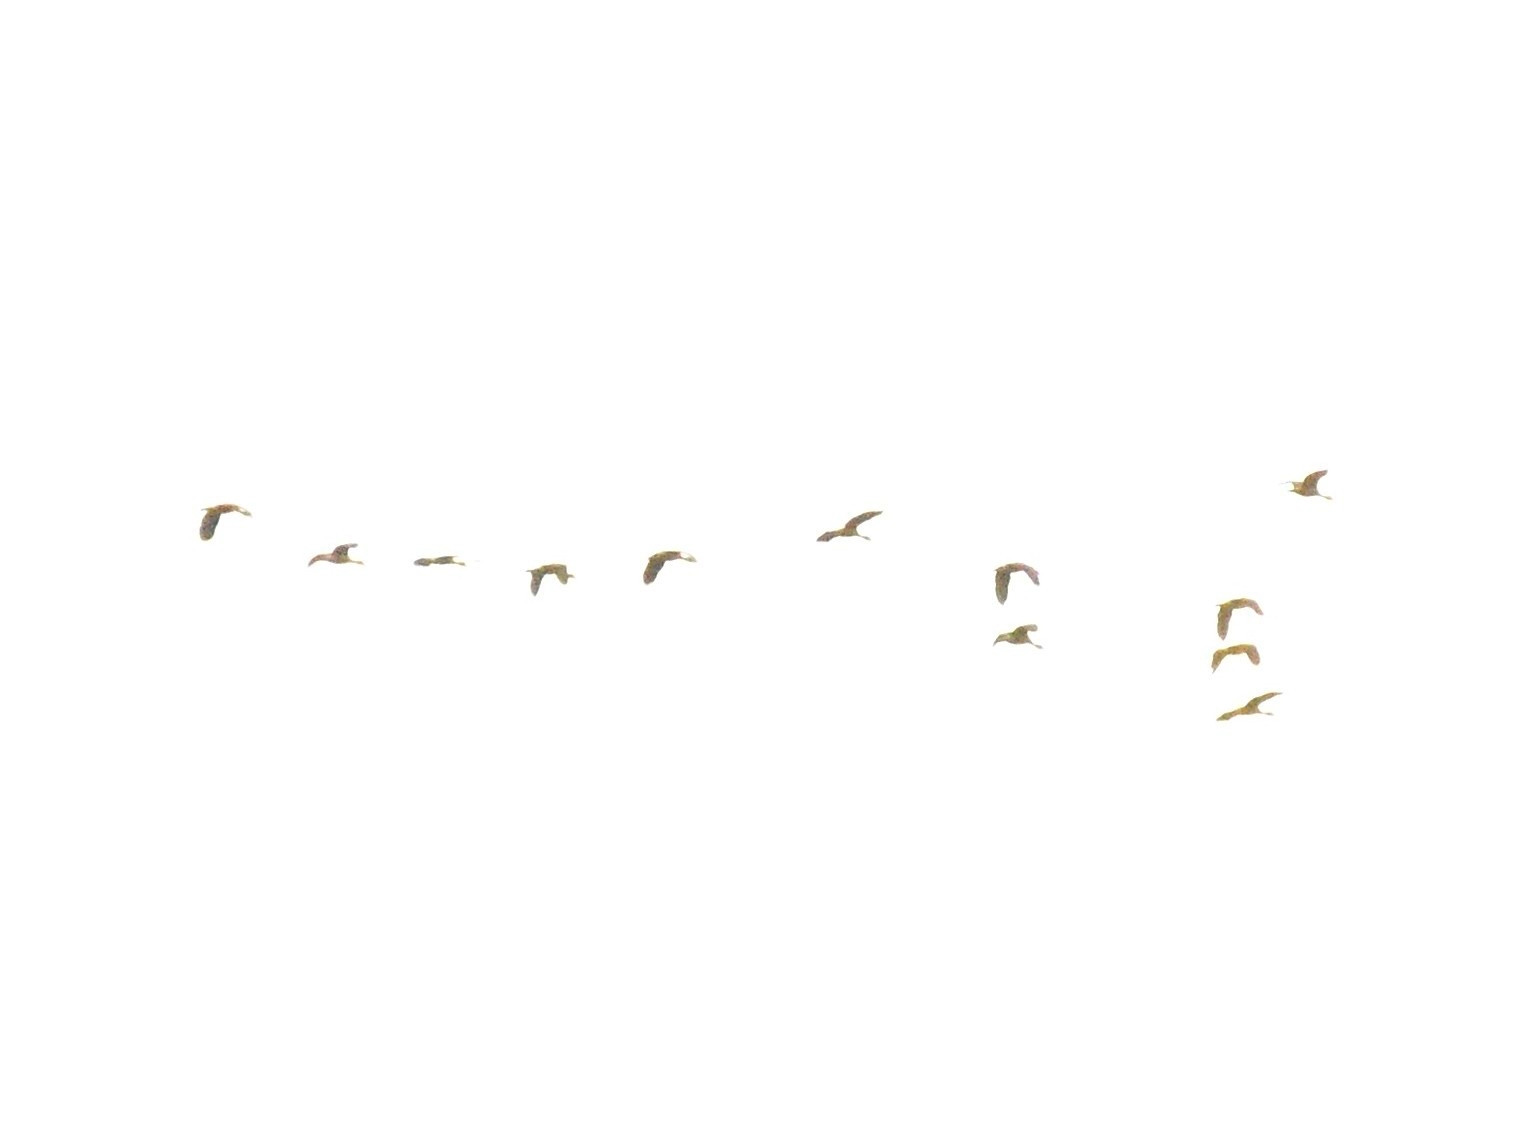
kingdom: Animalia
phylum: Chordata
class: Aves
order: Anseriformes
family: Anatidae
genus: Dendrocygna
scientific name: Dendrocygna javanica
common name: Lesser whistling-duck
